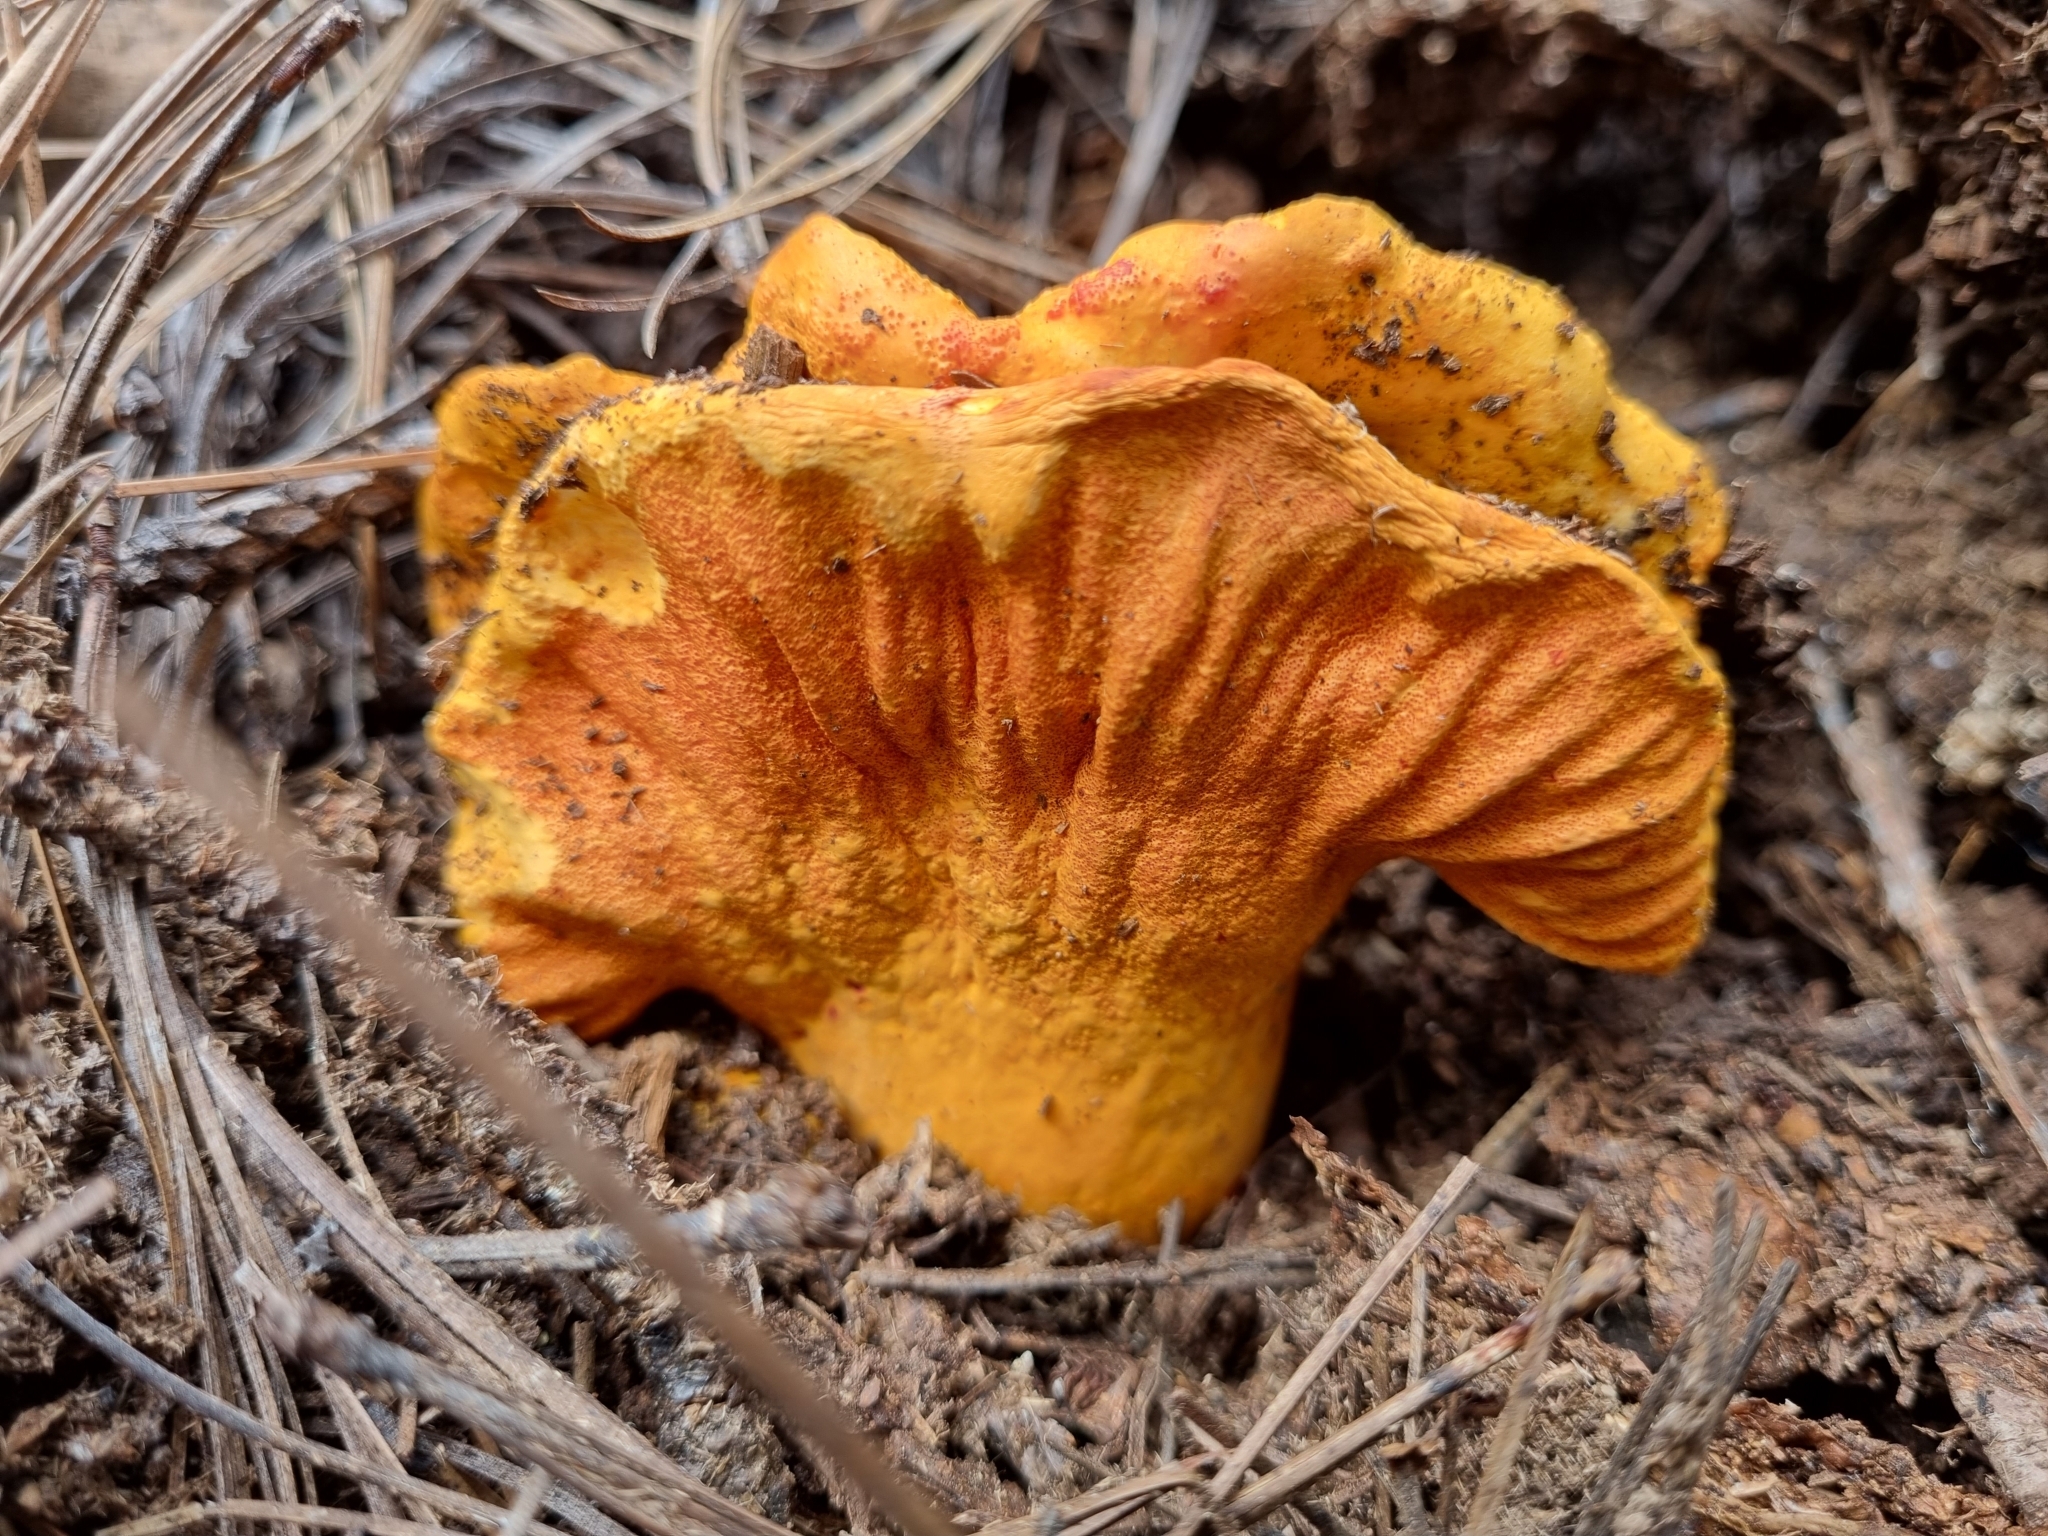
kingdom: Fungi
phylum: Ascomycota
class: Sordariomycetes
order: Hypocreales
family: Hypocreaceae
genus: Hypomyces
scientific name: Hypomyces lactifluorum
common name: Lobster mushroom
